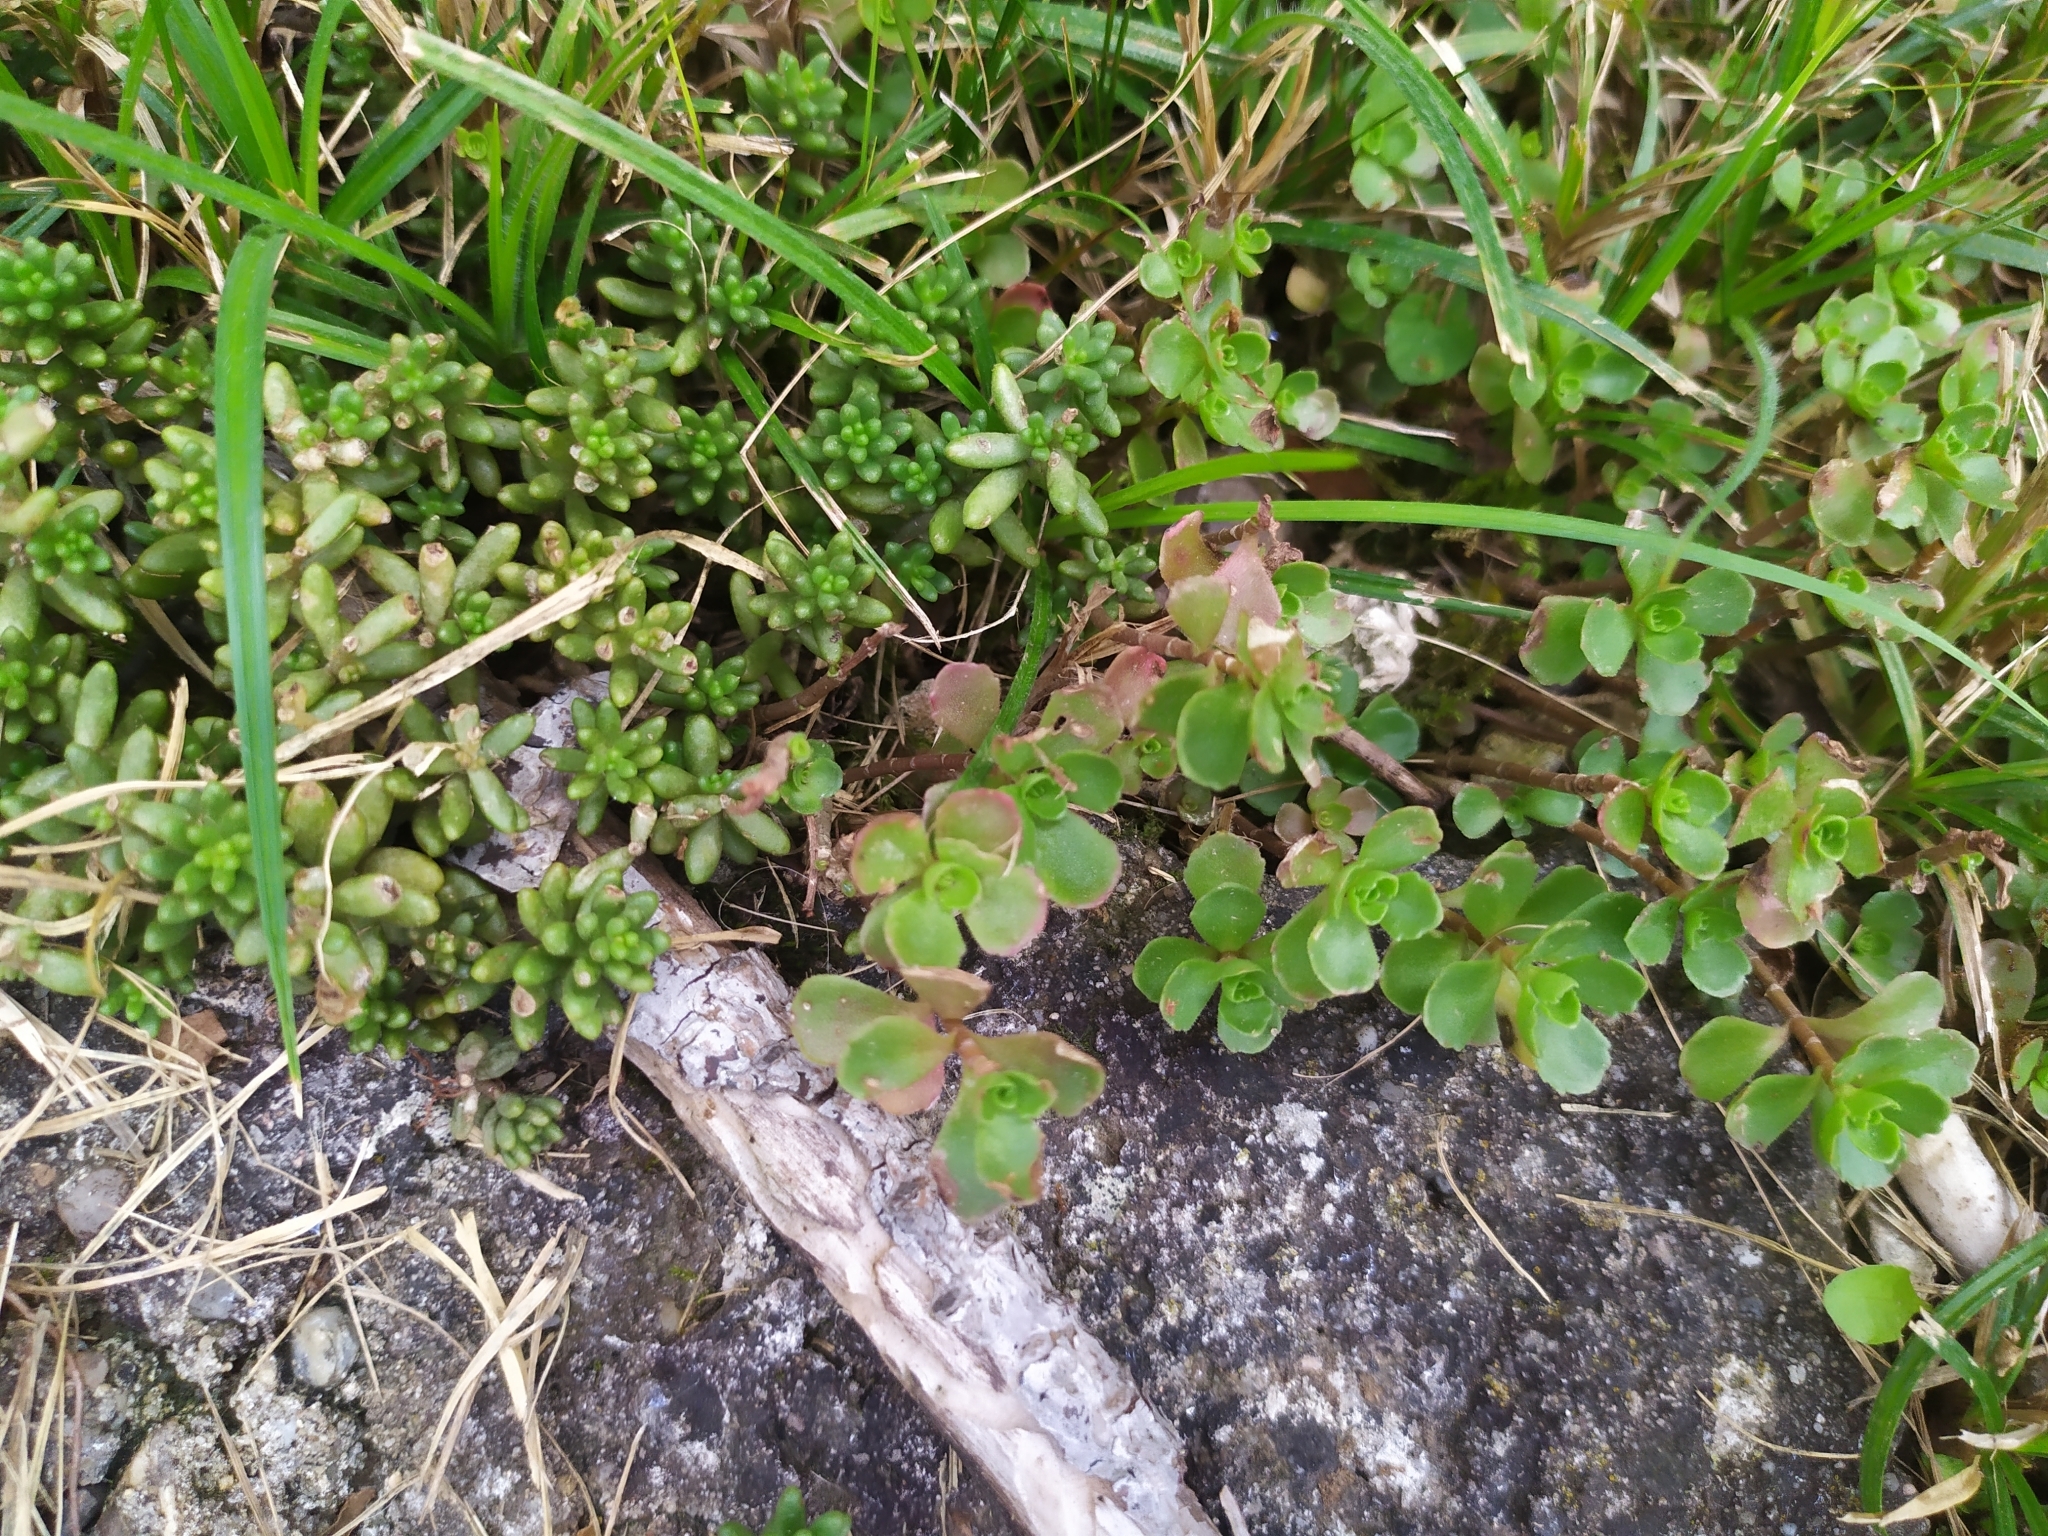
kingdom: Plantae
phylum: Tracheophyta
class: Magnoliopsida
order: Saxifragales
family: Crassulaceae
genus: Phedimus
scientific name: Phedimus spurius
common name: Caucasian stonecrop
